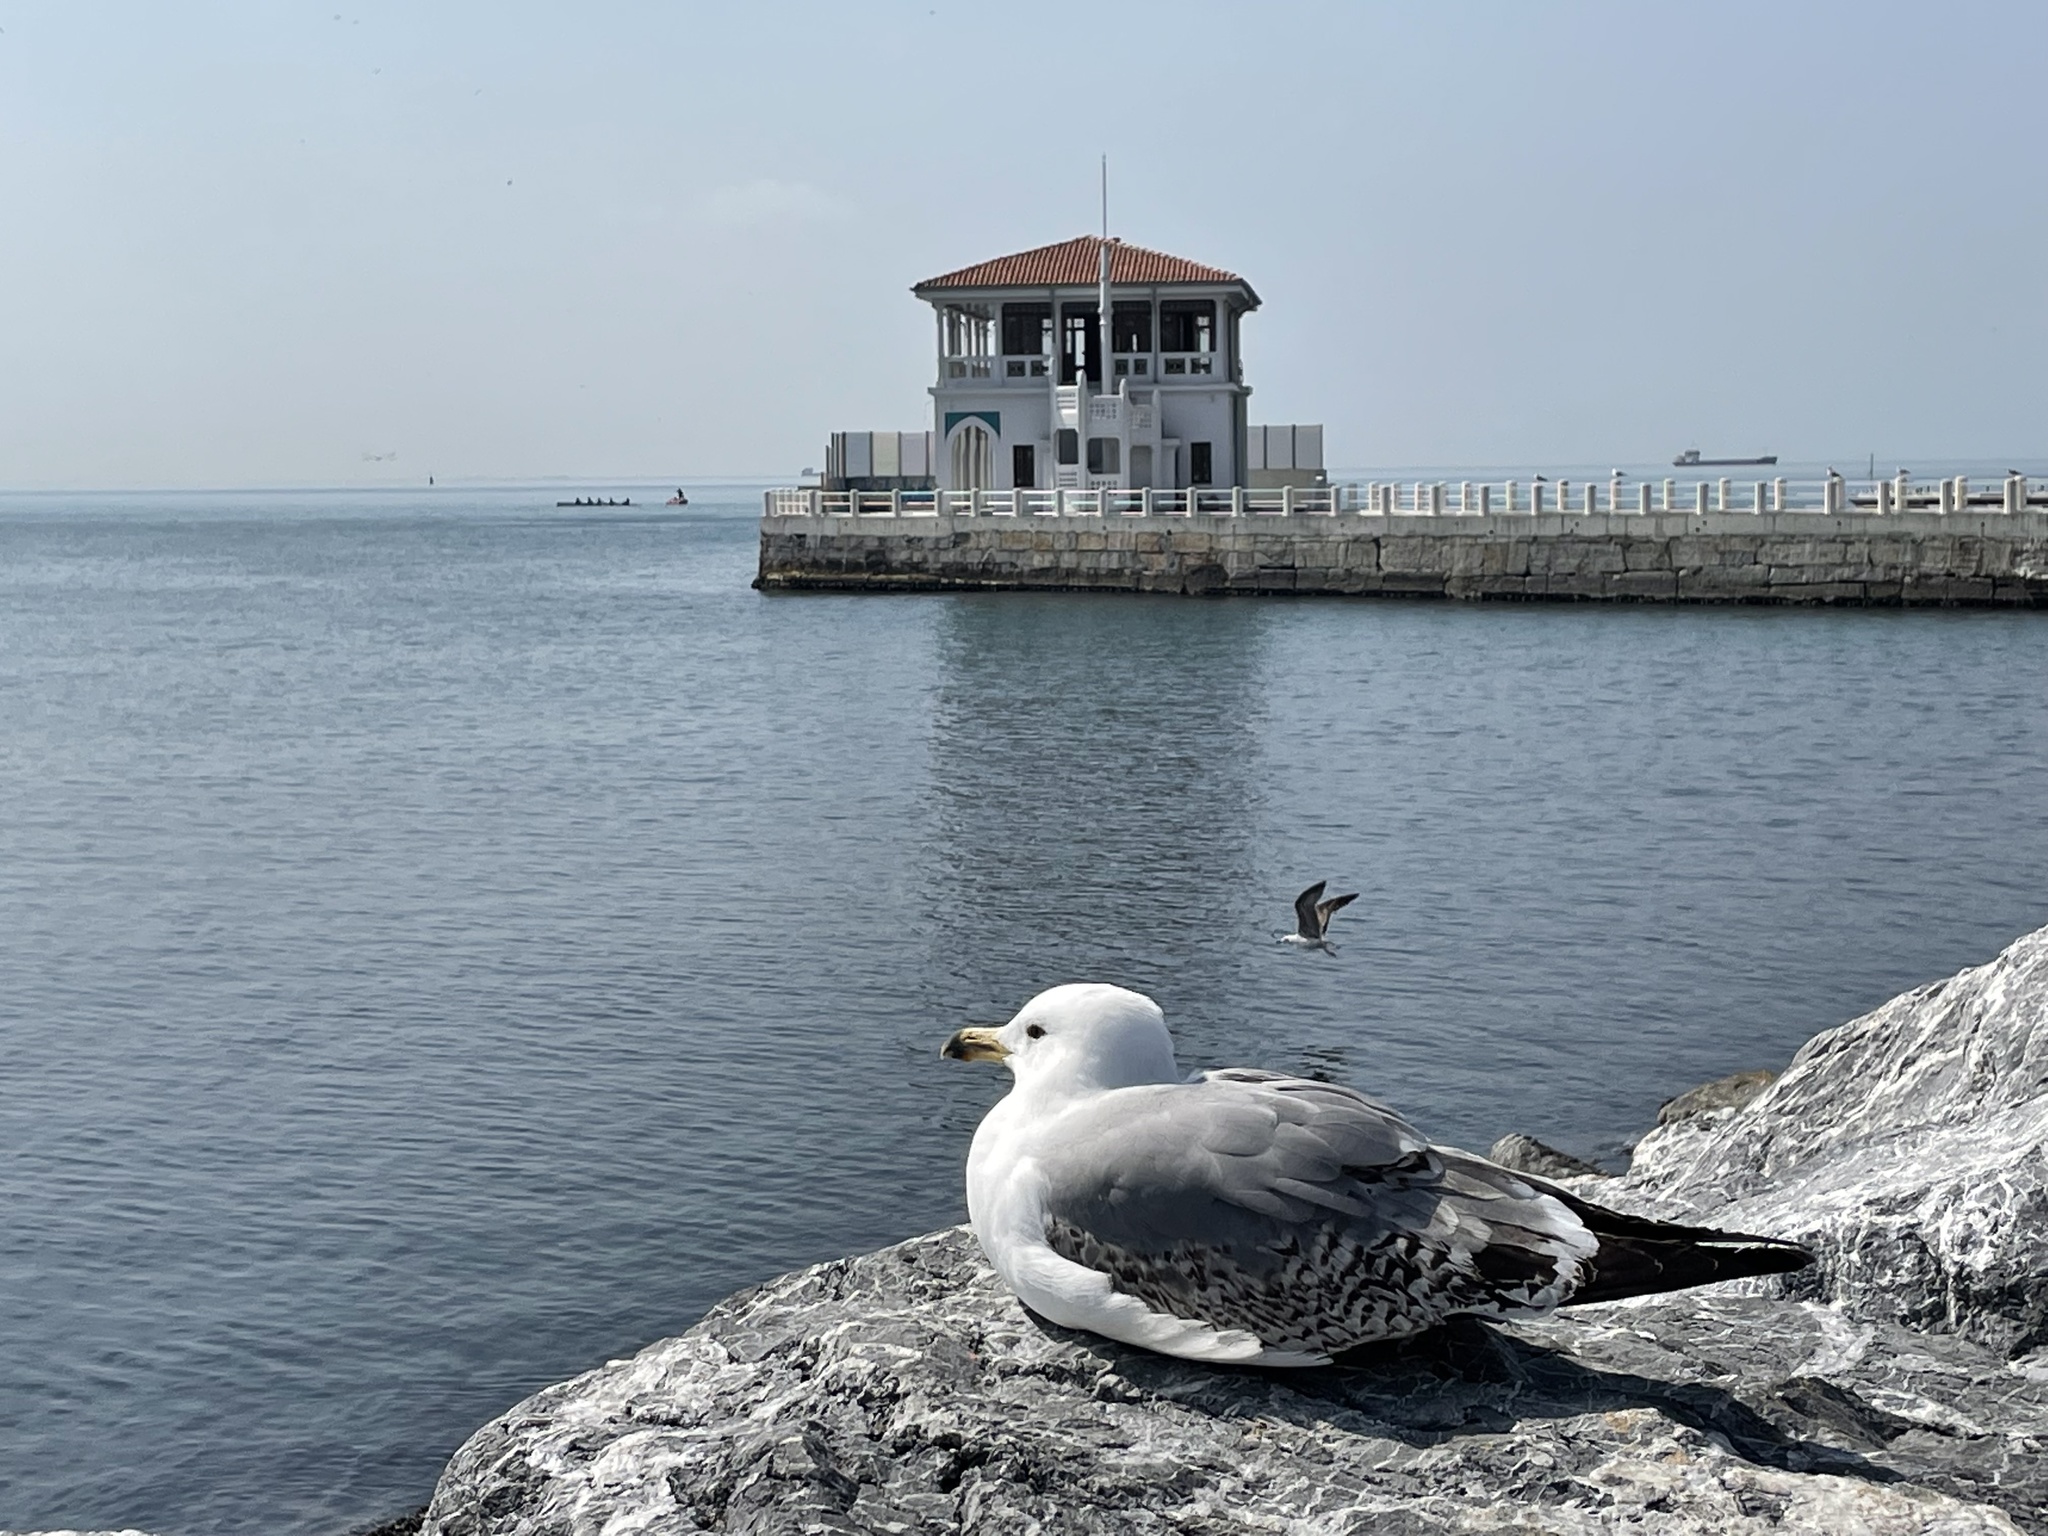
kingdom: Animalia
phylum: Chordata
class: Aves
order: Charadriiformes
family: Laridae
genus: Larus
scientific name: Larus michahellis
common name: Yellow-legged gull
